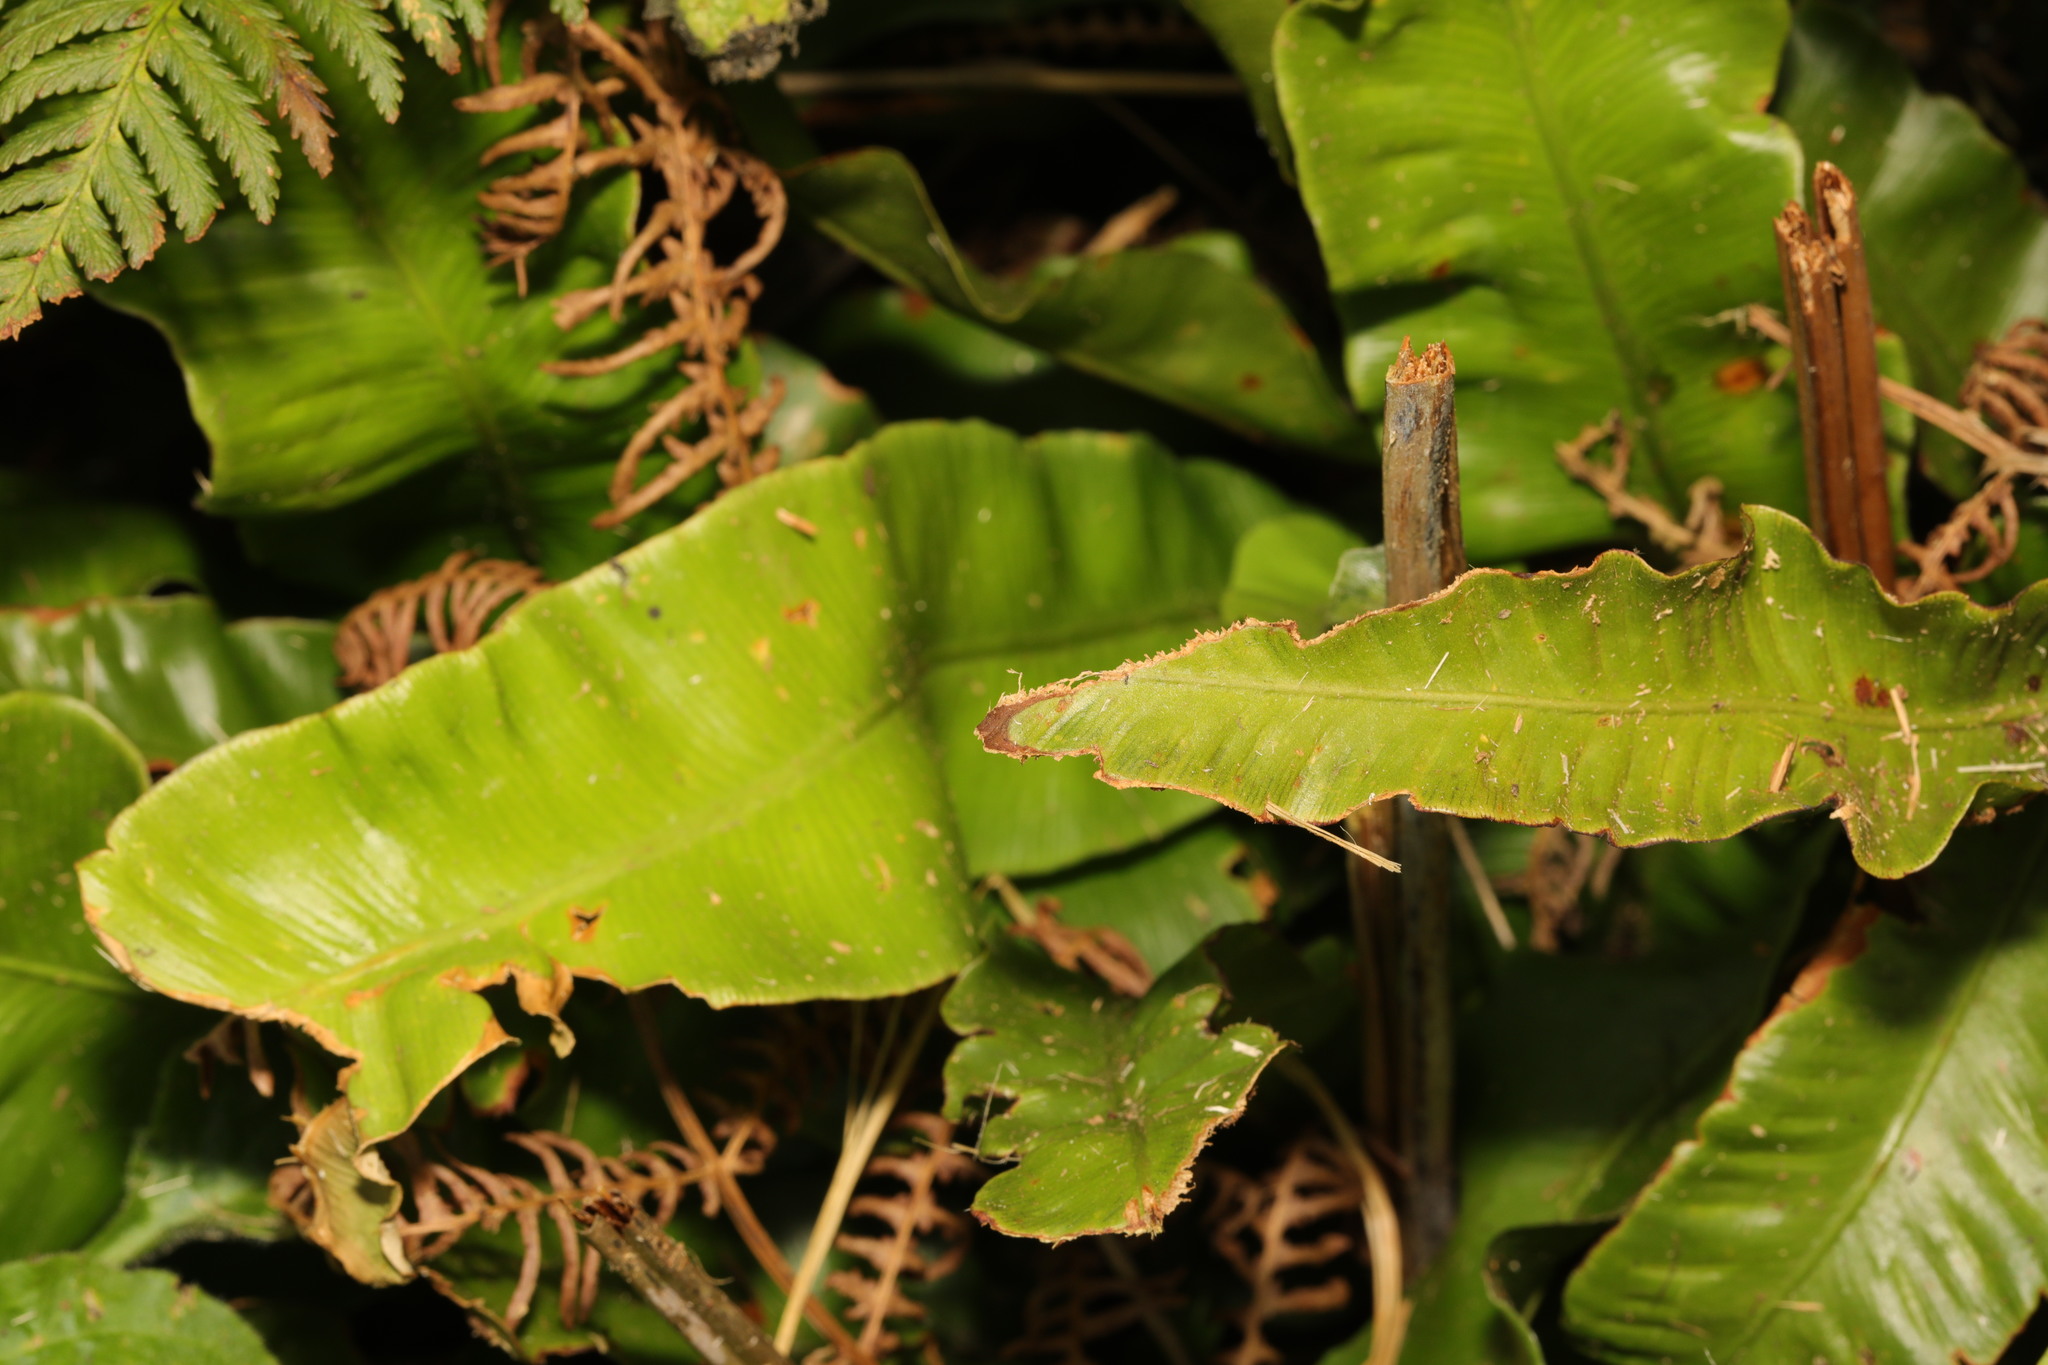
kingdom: Plantae
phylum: Tracheophyta
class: Polypodiopsida
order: Polypodiales
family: Aspleniaceae
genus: Asplenium
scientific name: Asplenium scolopendrium
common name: Hart's-tongue fern
